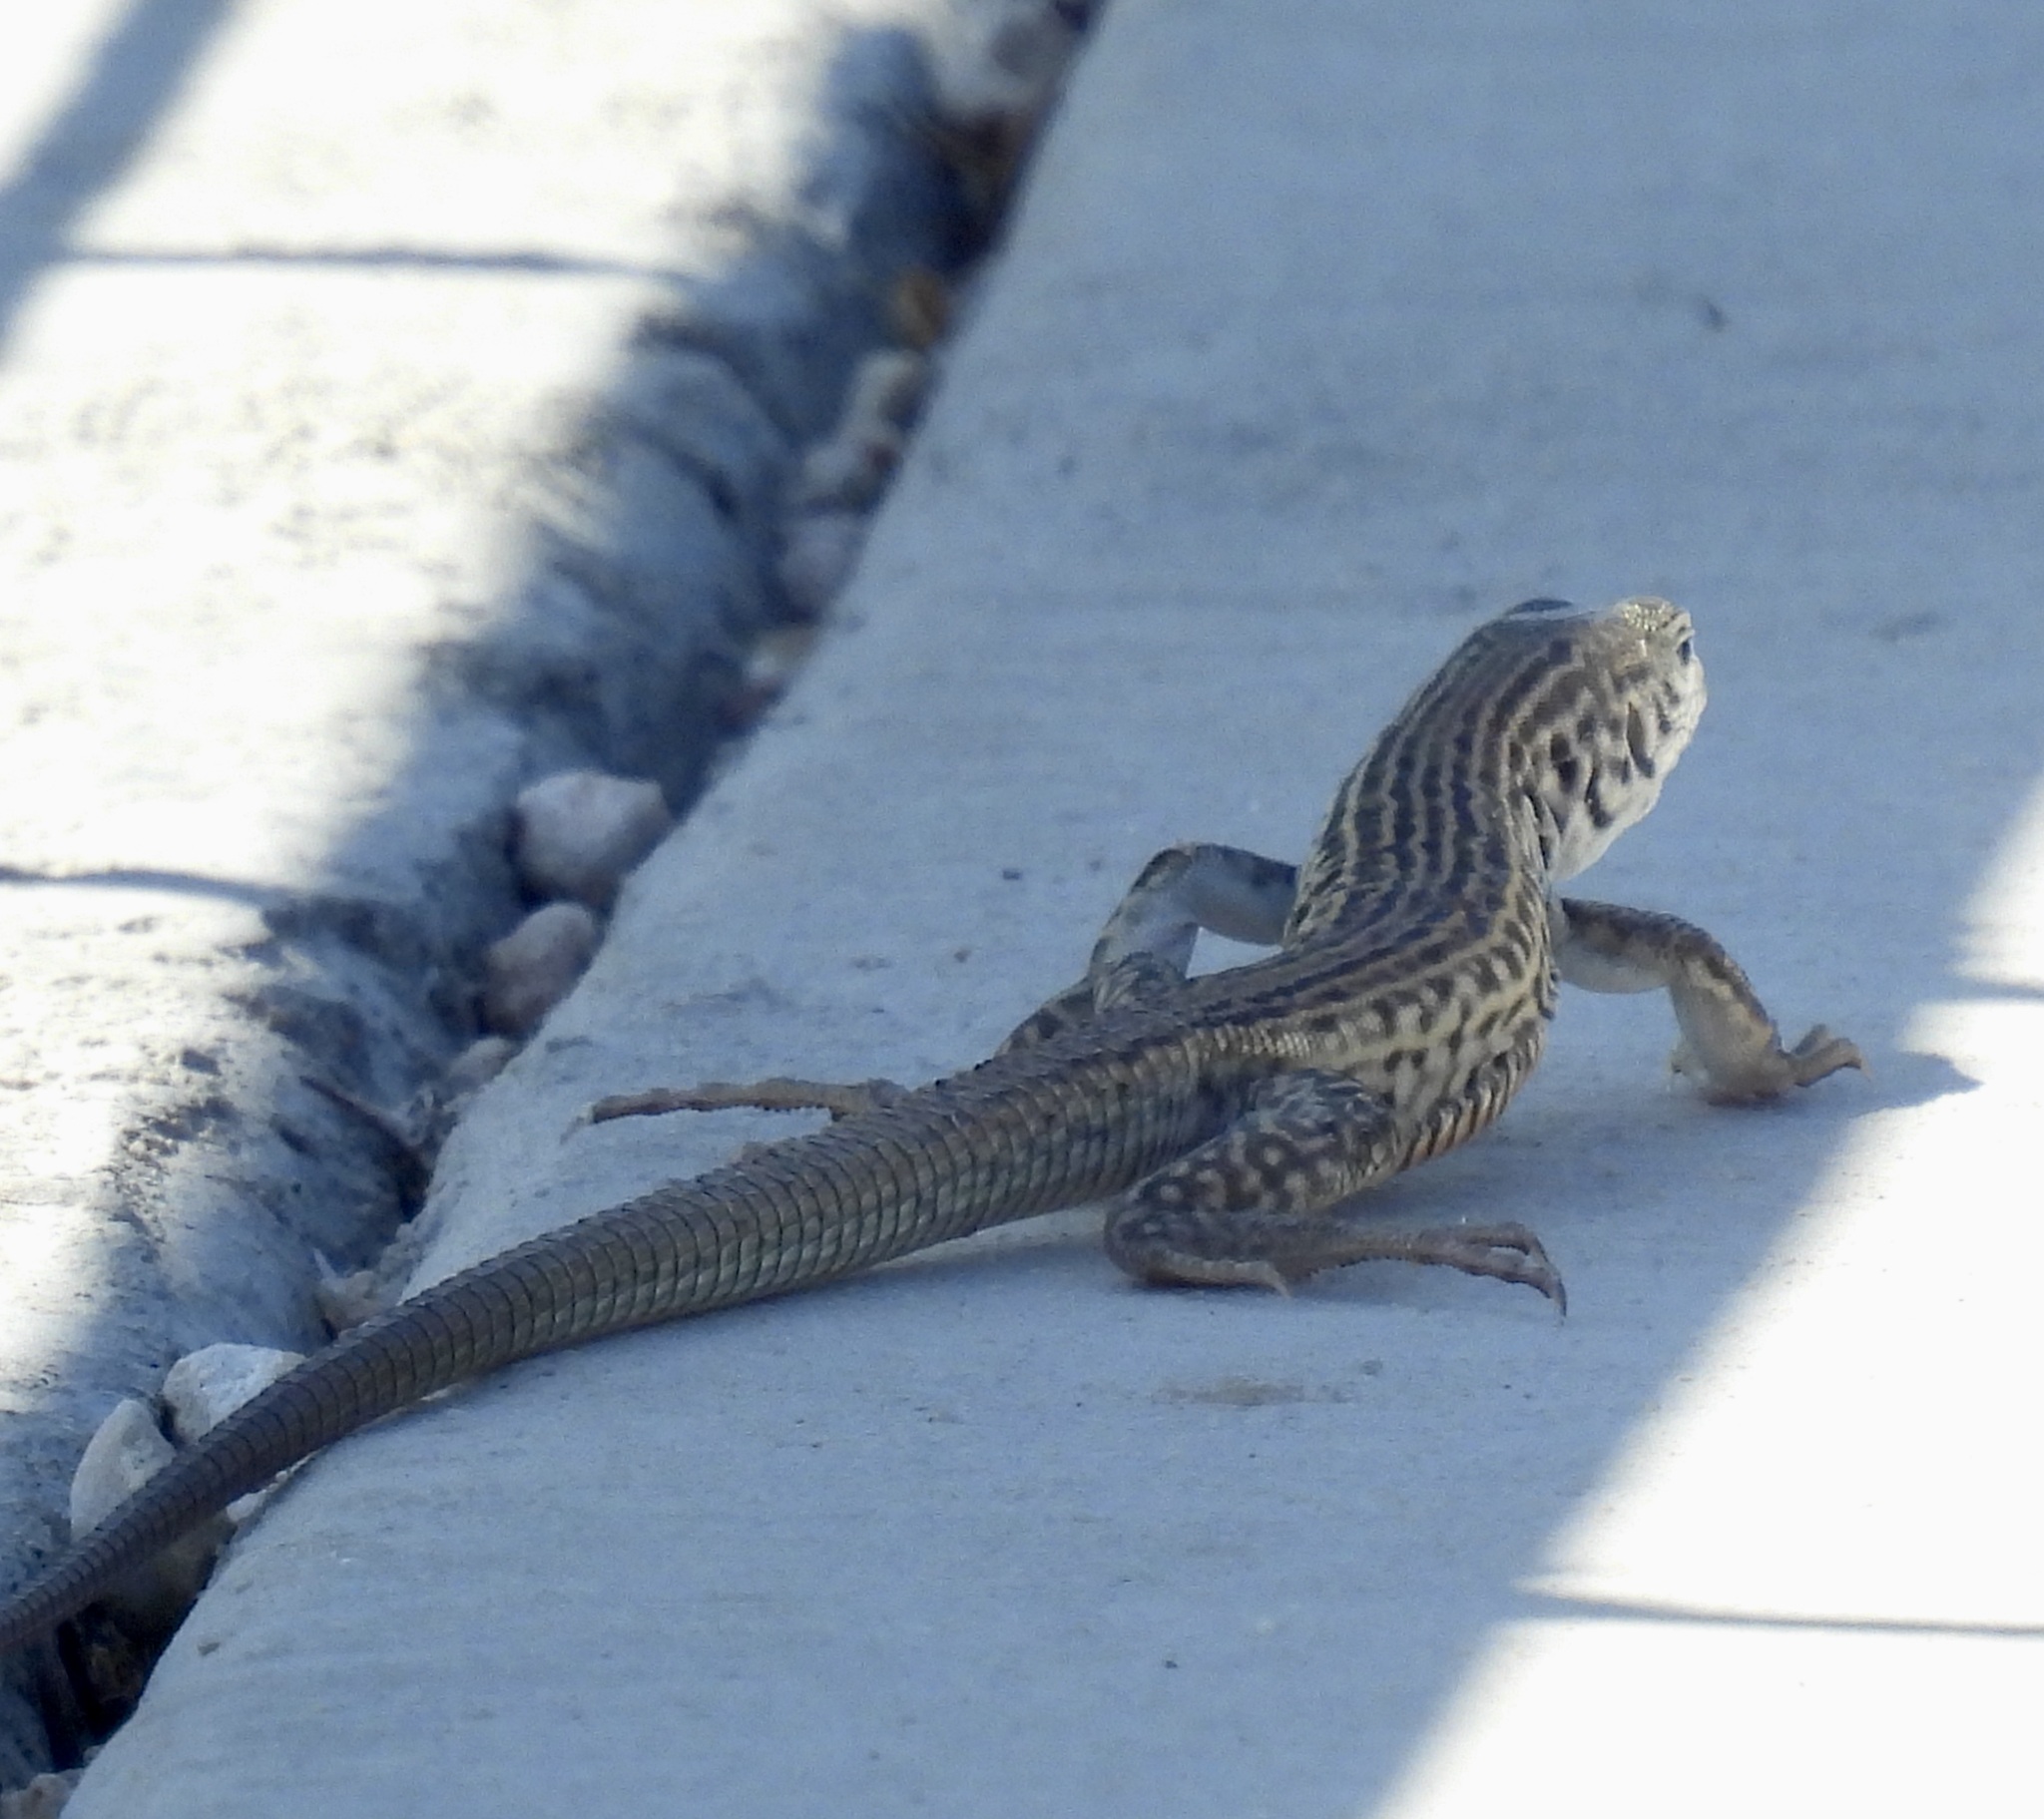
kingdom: Animalia
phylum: Chordata
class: Squamata
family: Teiidae
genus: Aspidoscelis
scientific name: Aspidoscelis marmoratus
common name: Eastern marbled whiptail [reticuloriens]
